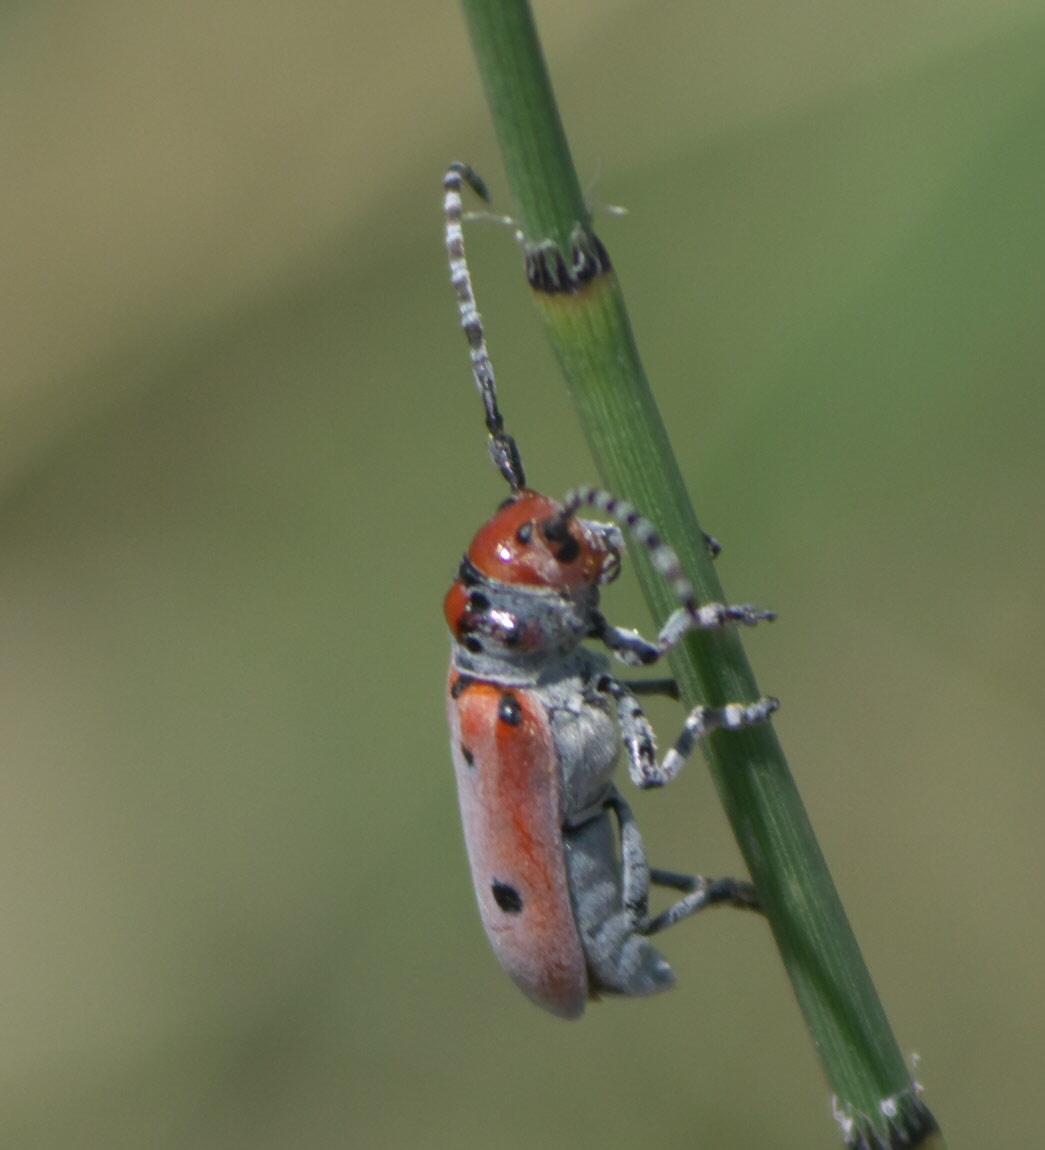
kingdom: Animalia
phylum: Arthropoda
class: Insecta
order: Coleoptera
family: Cerambycidae
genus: Tetraopes
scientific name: Tetraopes annulatus
